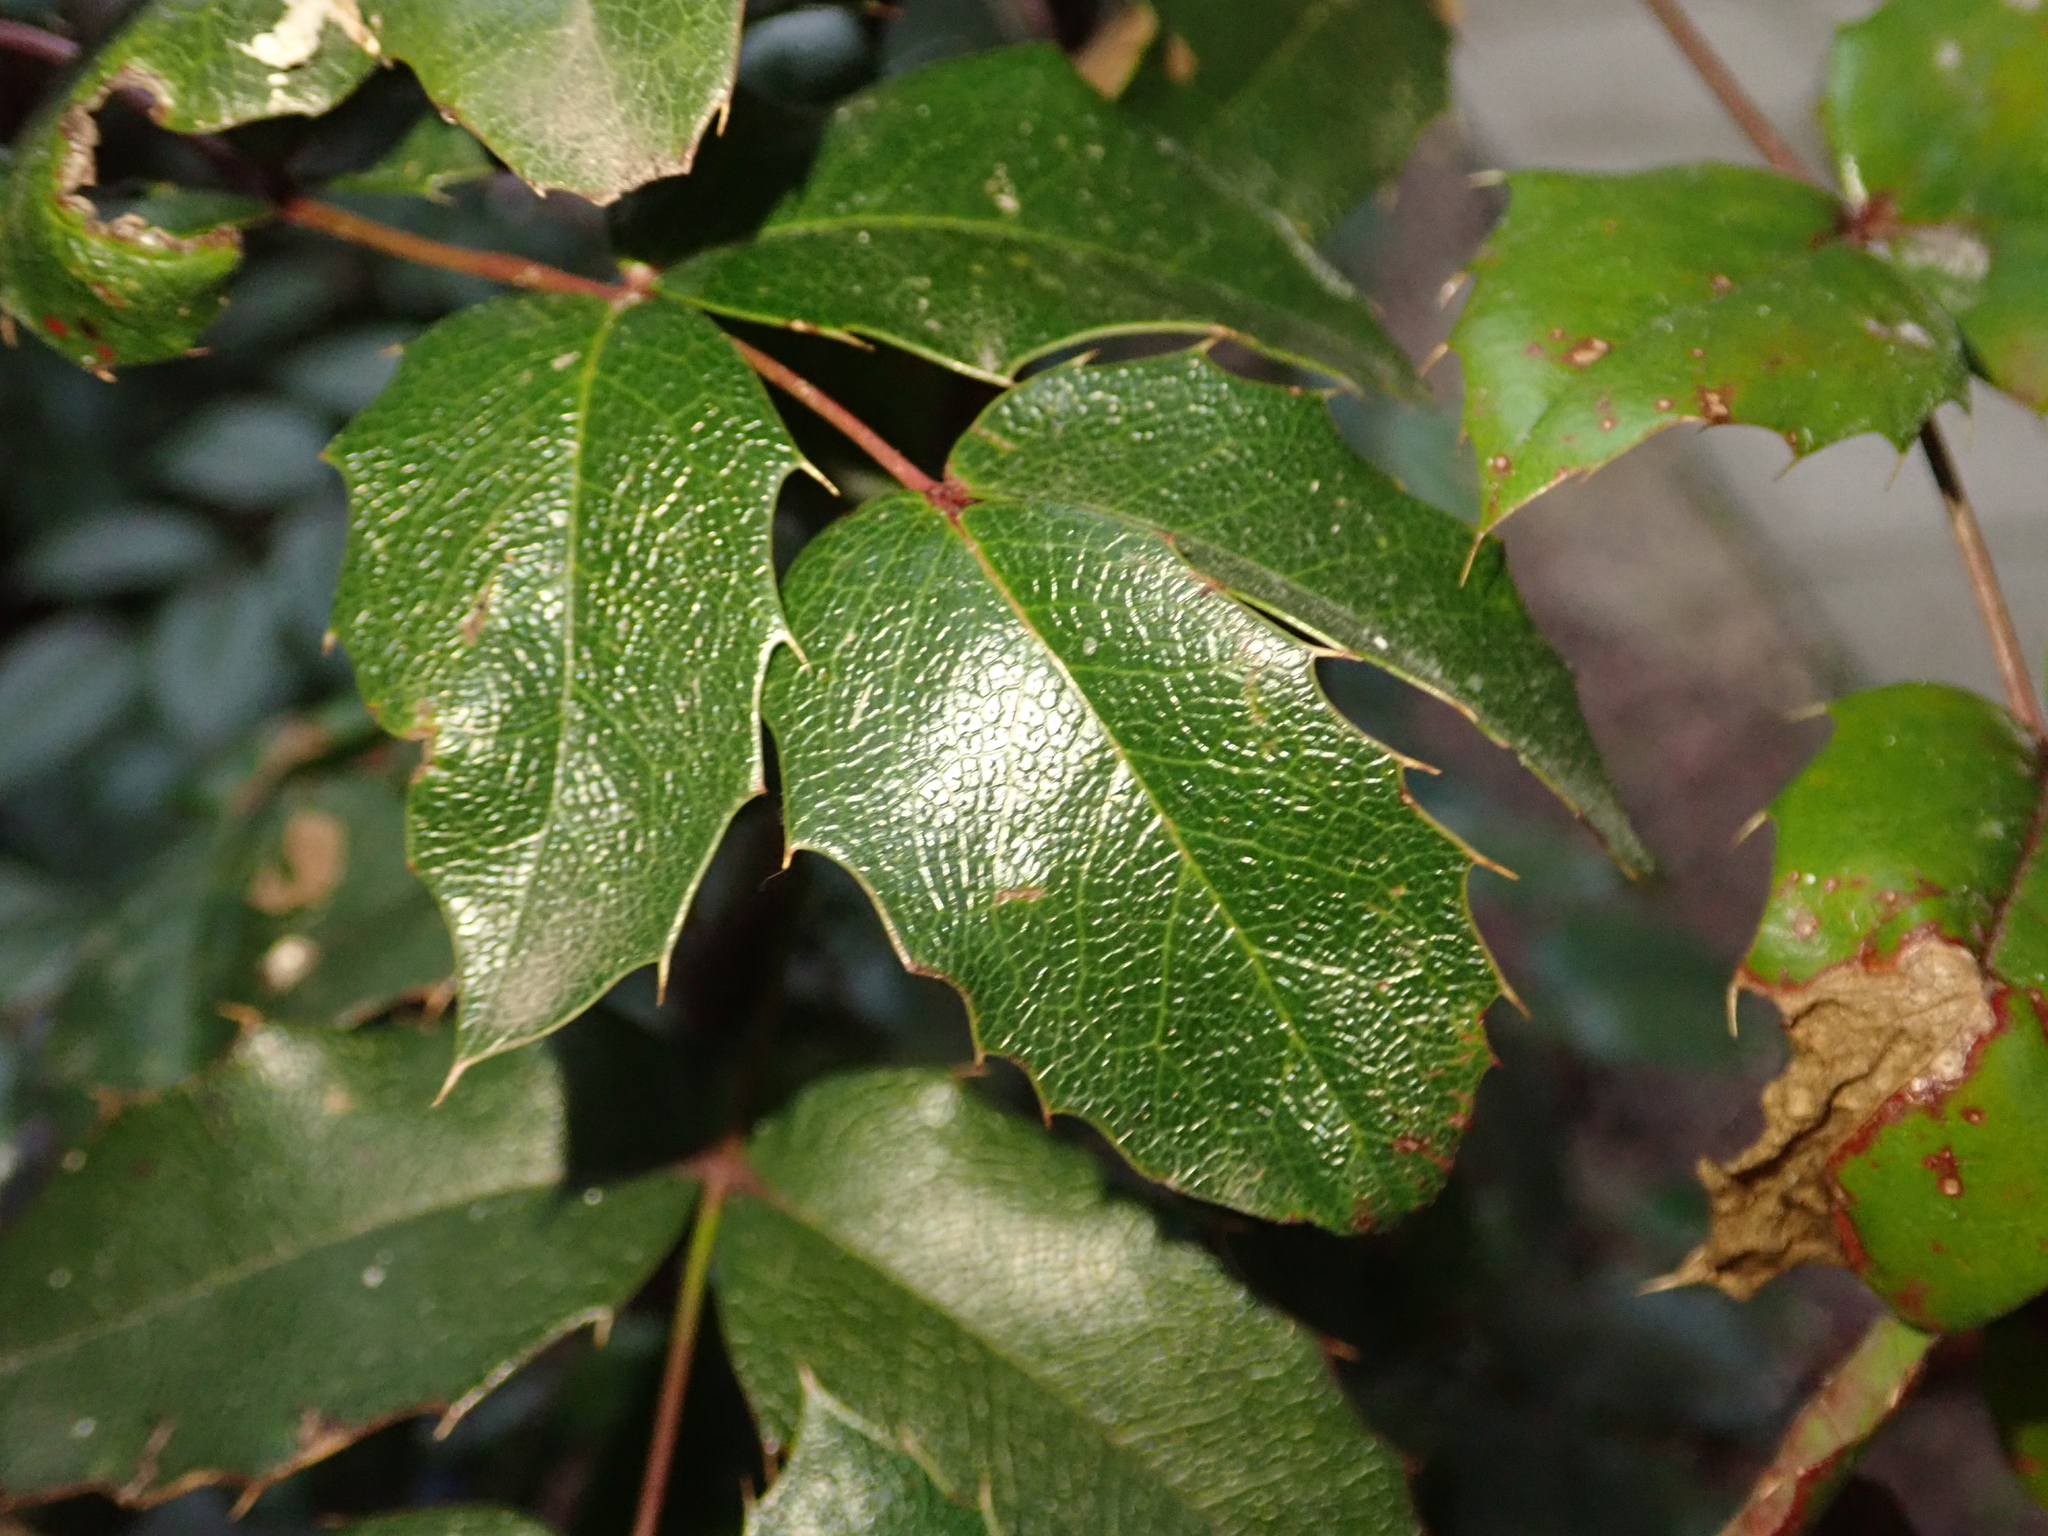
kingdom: Plantae
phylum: Tracheophyta
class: Magnoliopsida
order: Ranunculales
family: Berberidaceae
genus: Mahonia
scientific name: Mahonia aquifolium
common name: Oregon-grape
